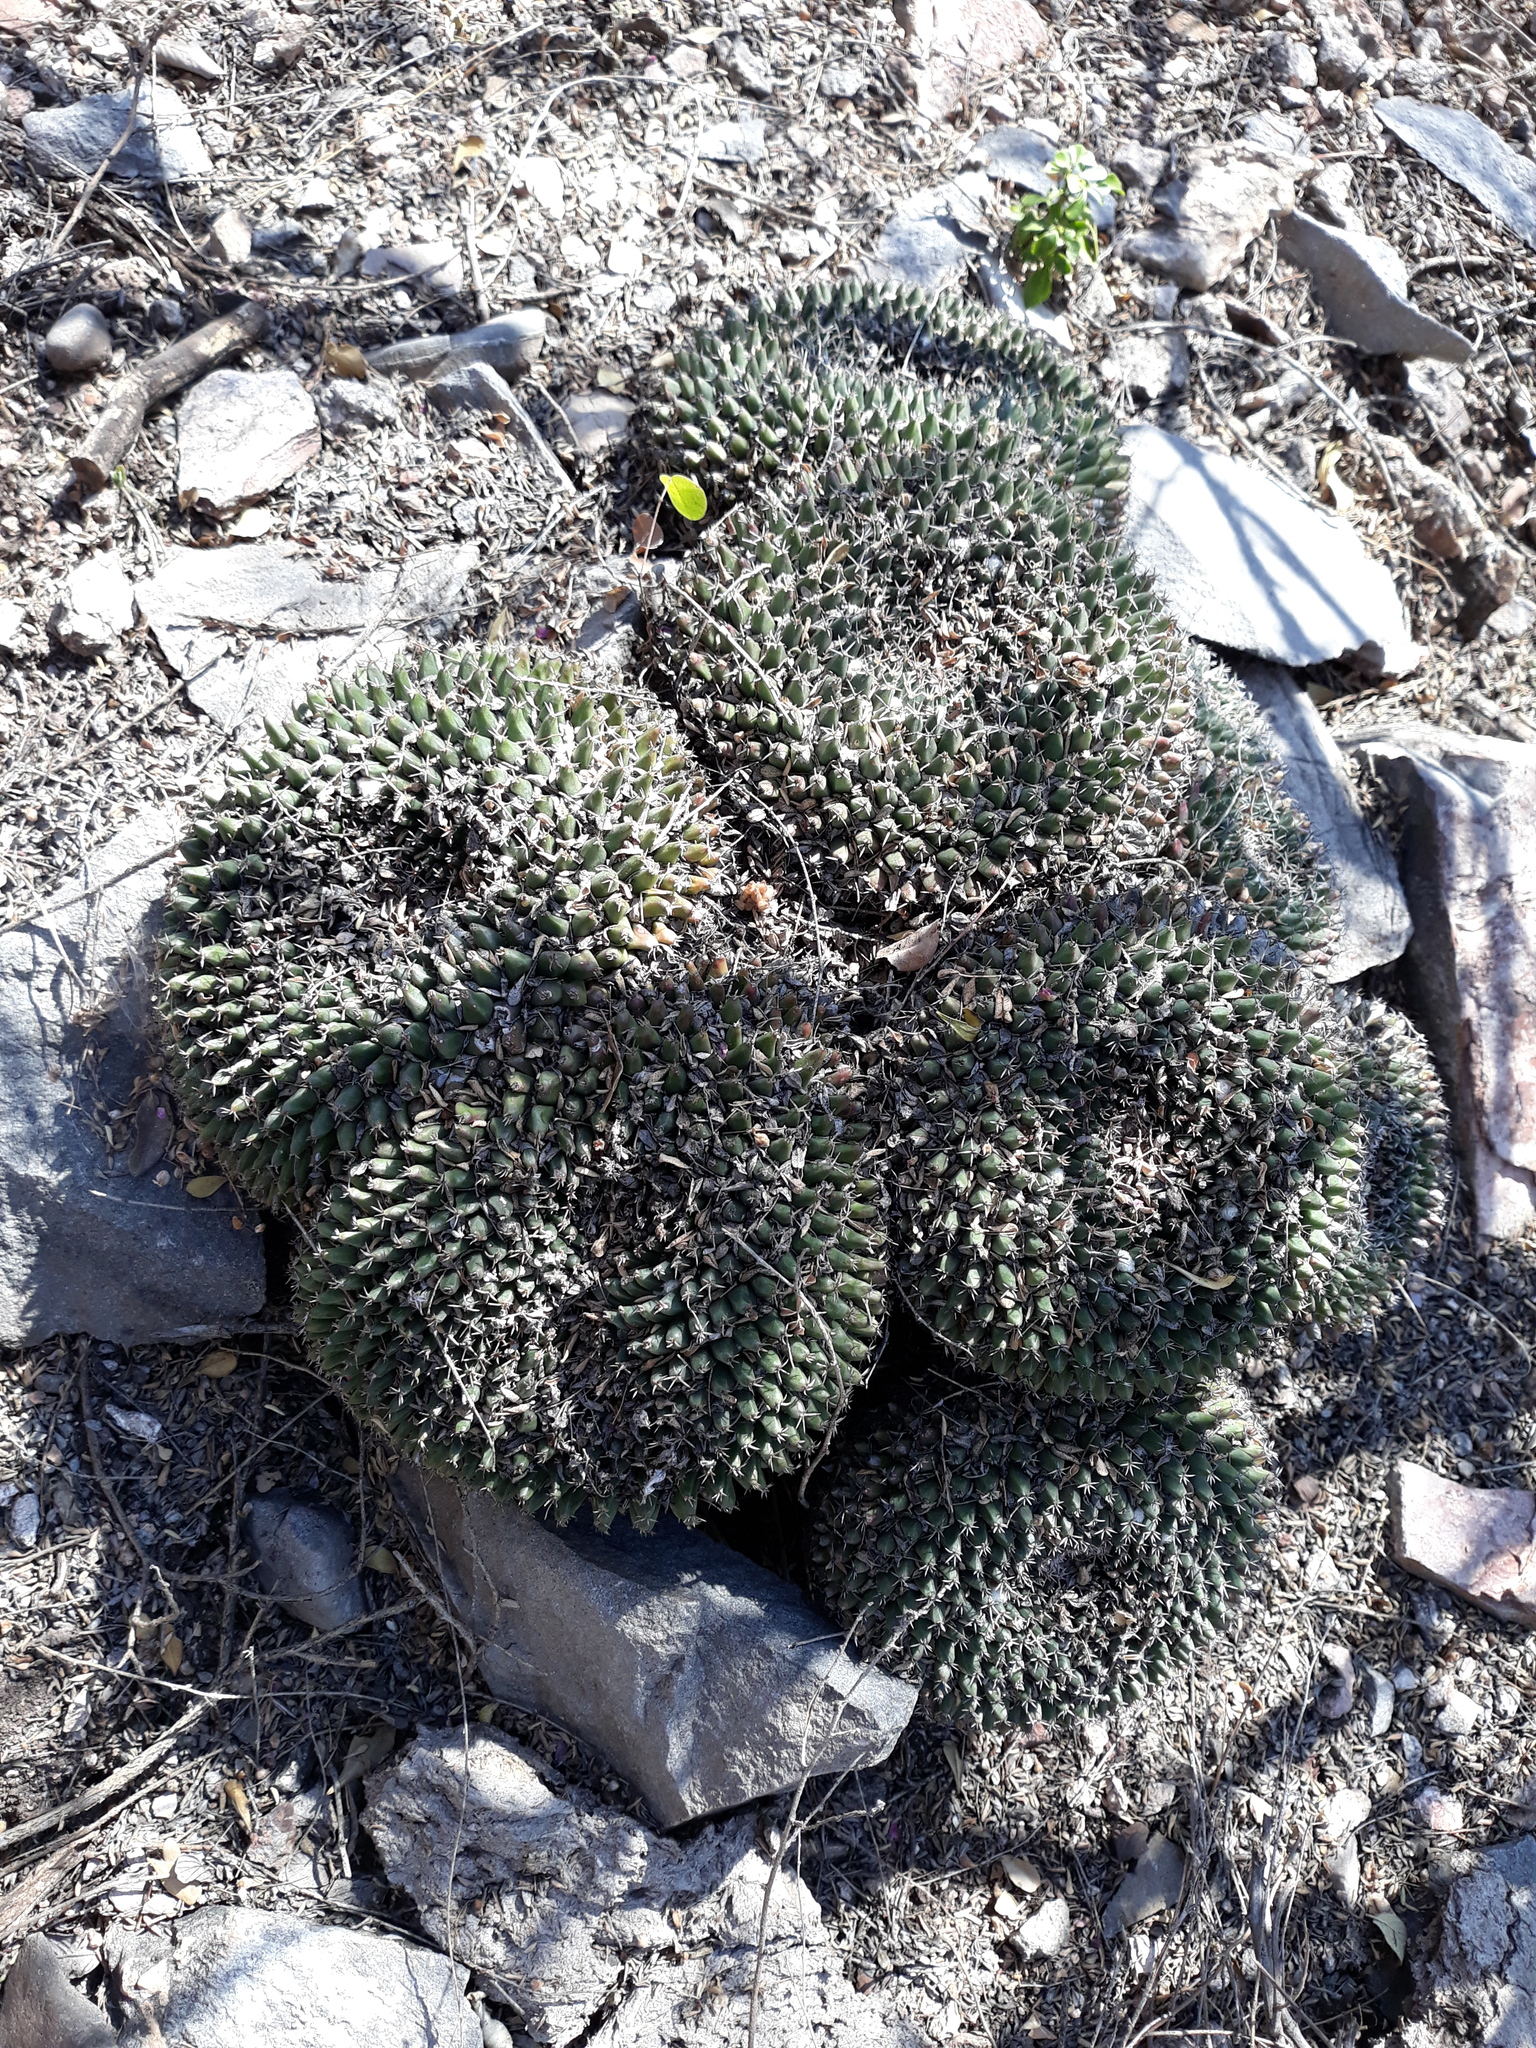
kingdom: Plantae
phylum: Tracheophyta
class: Magnoliopsida
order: Caryophyllales
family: Cactaceae
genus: Mammillaria
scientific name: Mammillaria perbella
